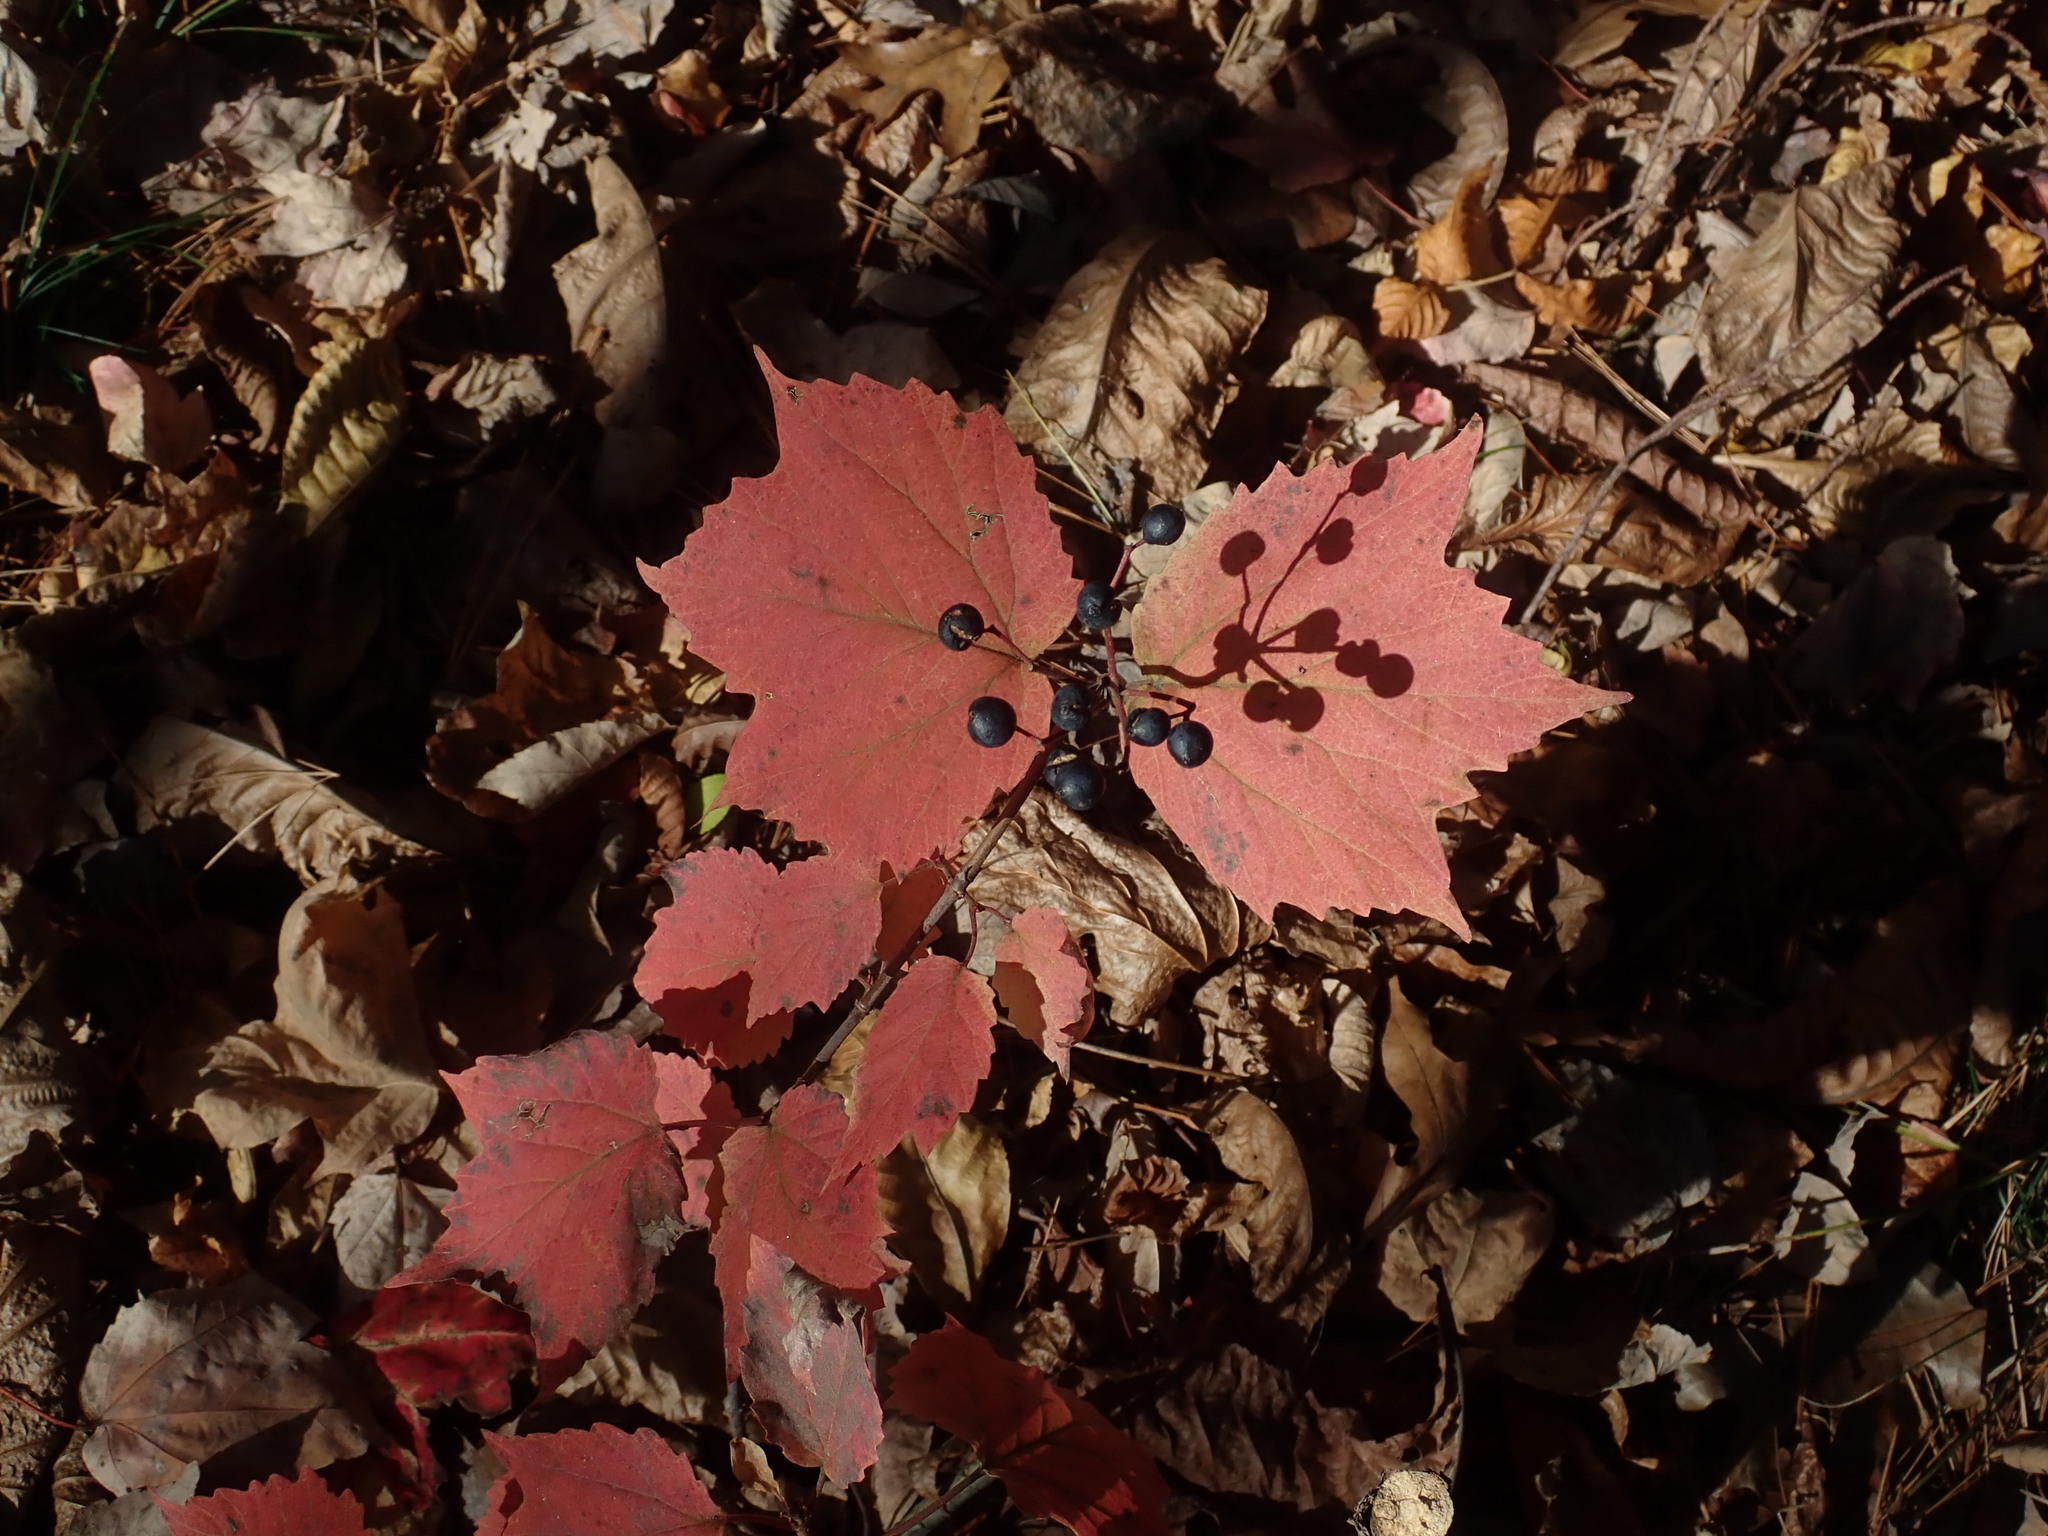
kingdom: Plantae
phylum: Tracheophyta
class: Magnoliopsida
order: Dipsacales
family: Viburnaceae
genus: Viburnum
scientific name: Viburnum acerifolium
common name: Dockmackie
